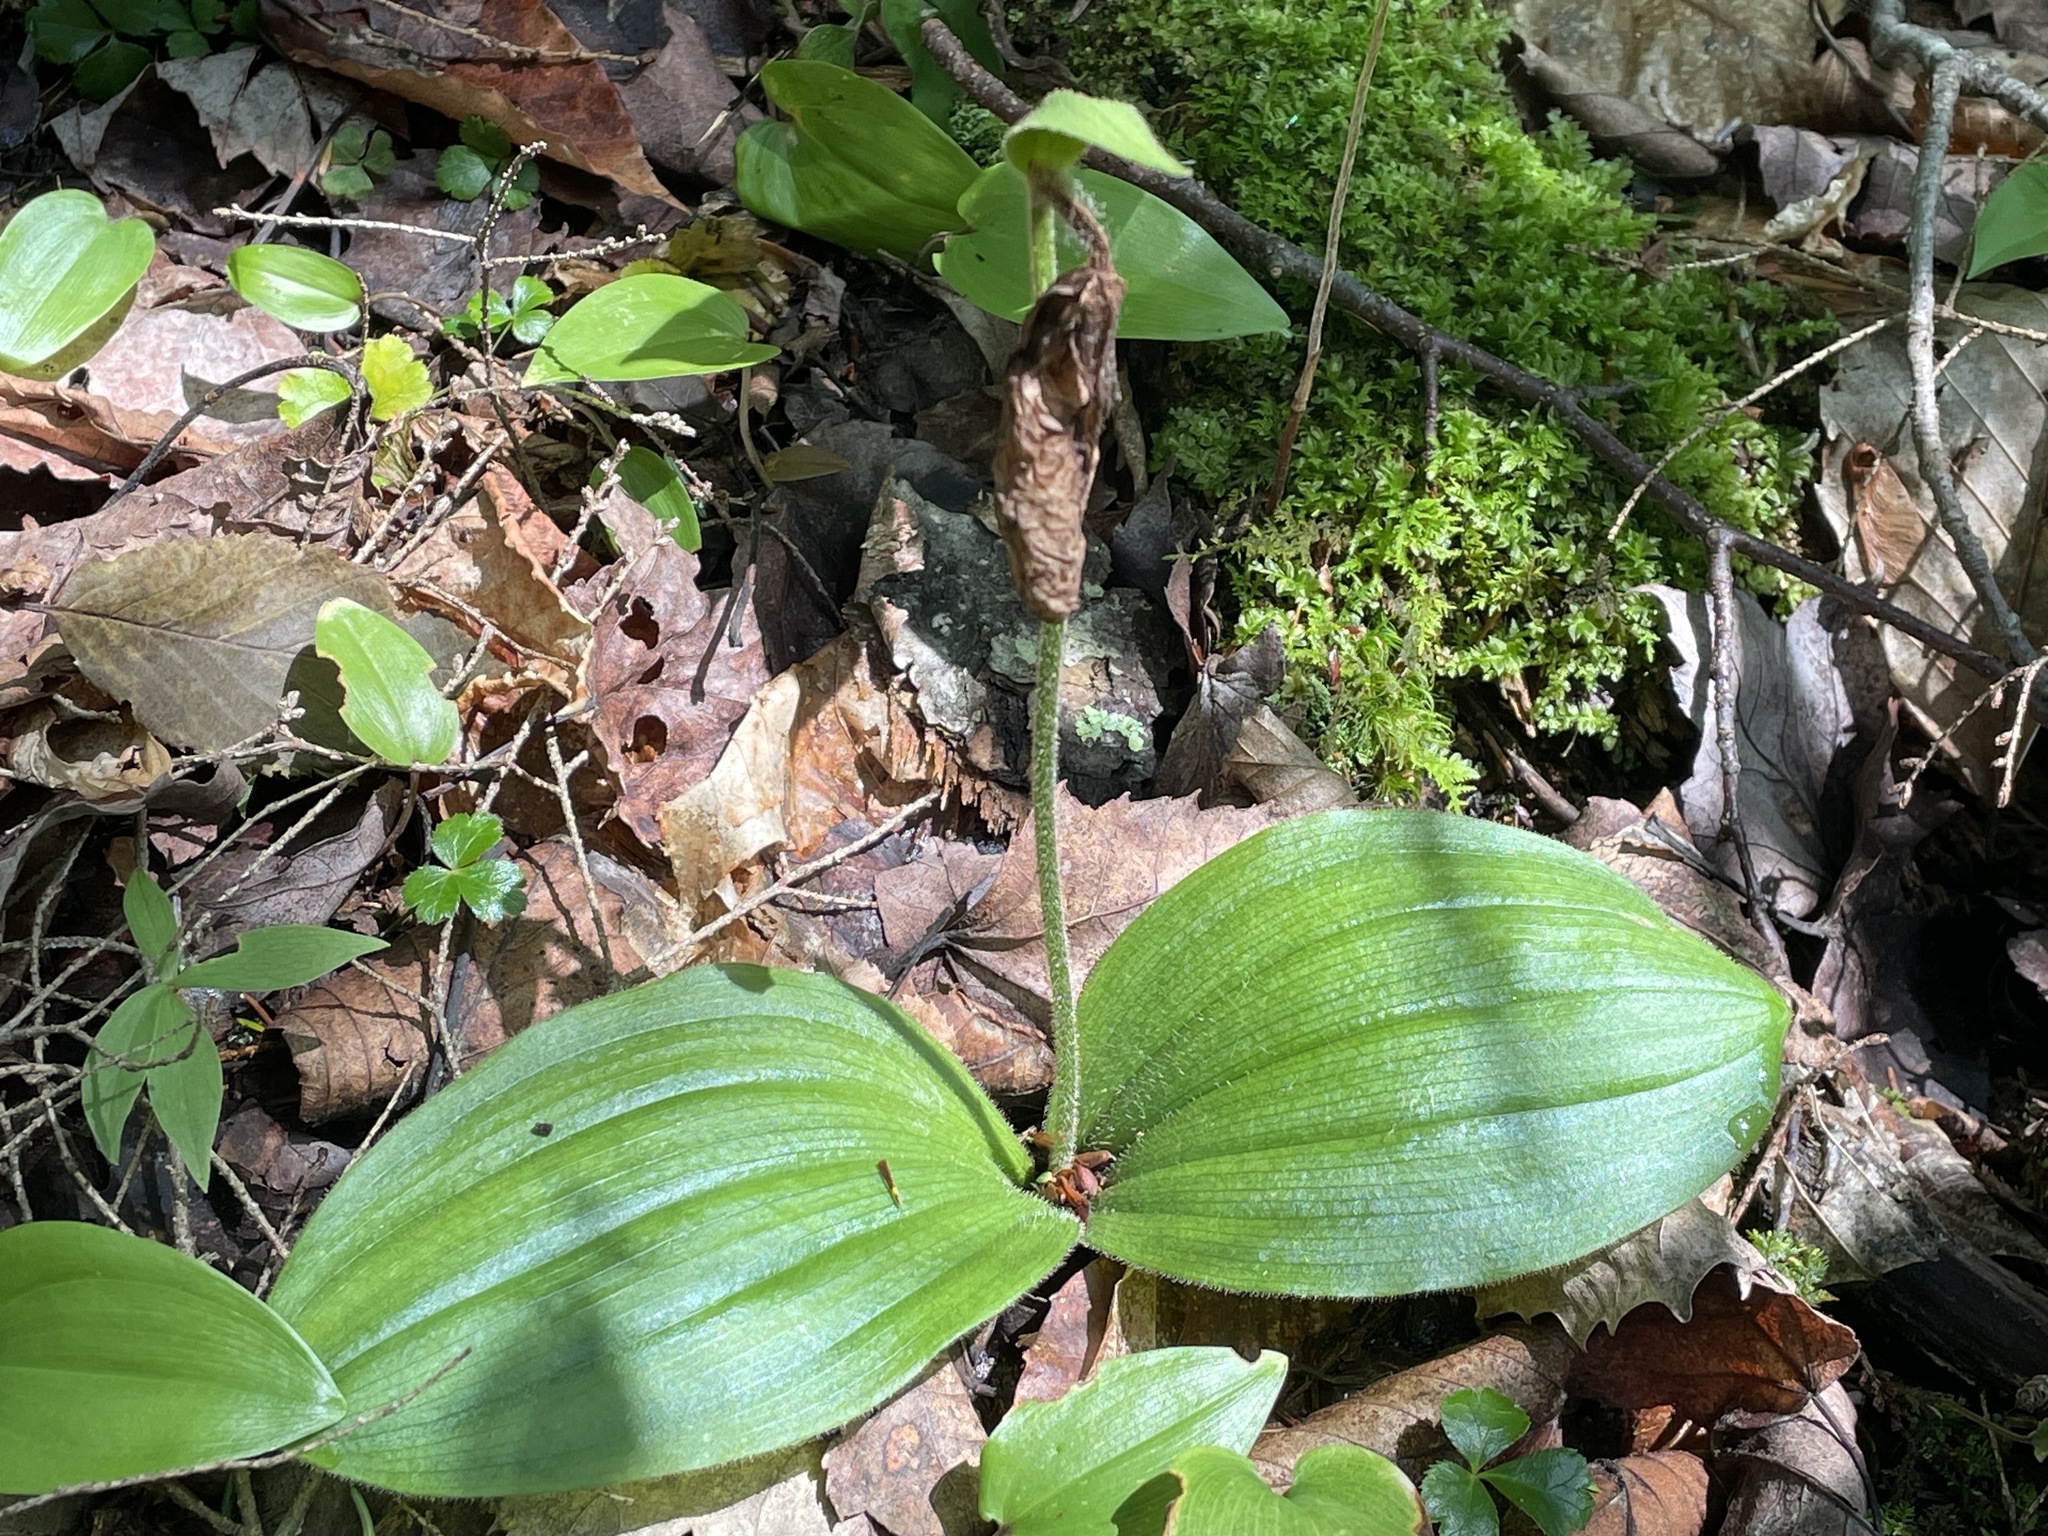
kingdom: Plantae
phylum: Tracheophyta
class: Liliopsida
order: Asparagales
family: Orchidaceae
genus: Cypripedium
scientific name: Cypripedium acaule
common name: Pink lady's-slipper
